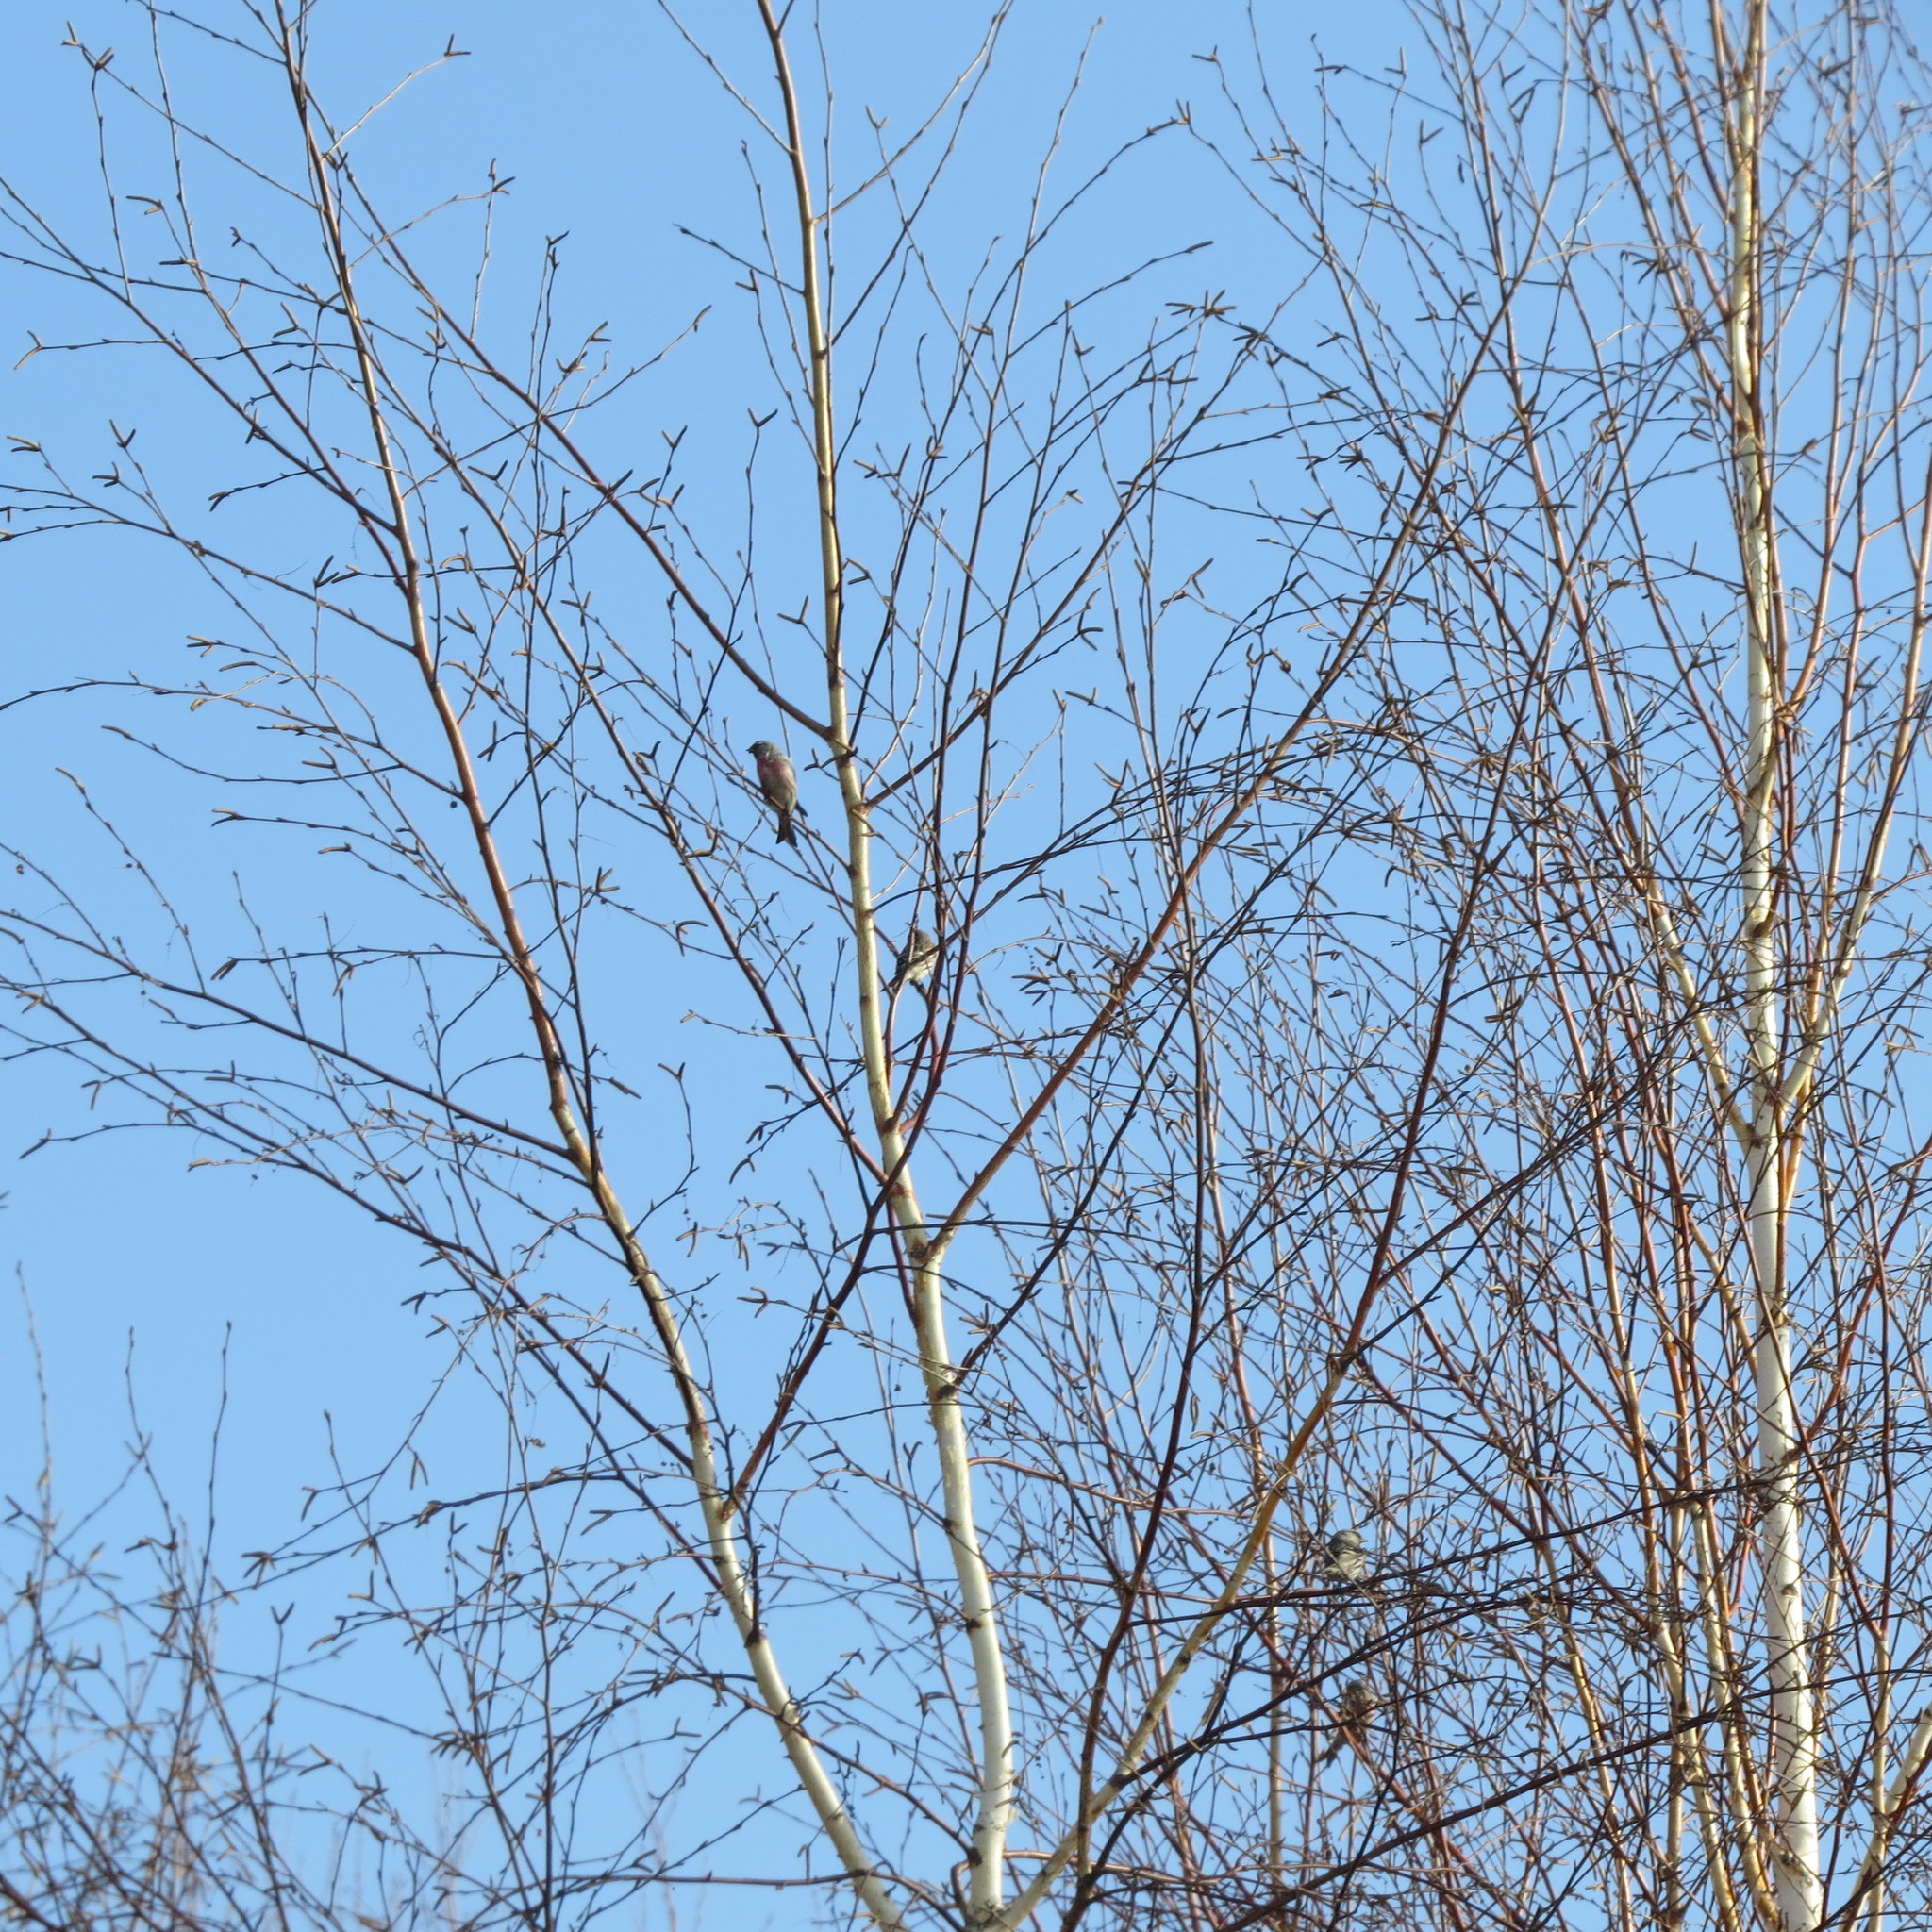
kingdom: Animalia
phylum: Chordata
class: Aves
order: Passeriformes
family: Fringillidae
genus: Linaria
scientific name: Linaria cannabina
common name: Common linnet
